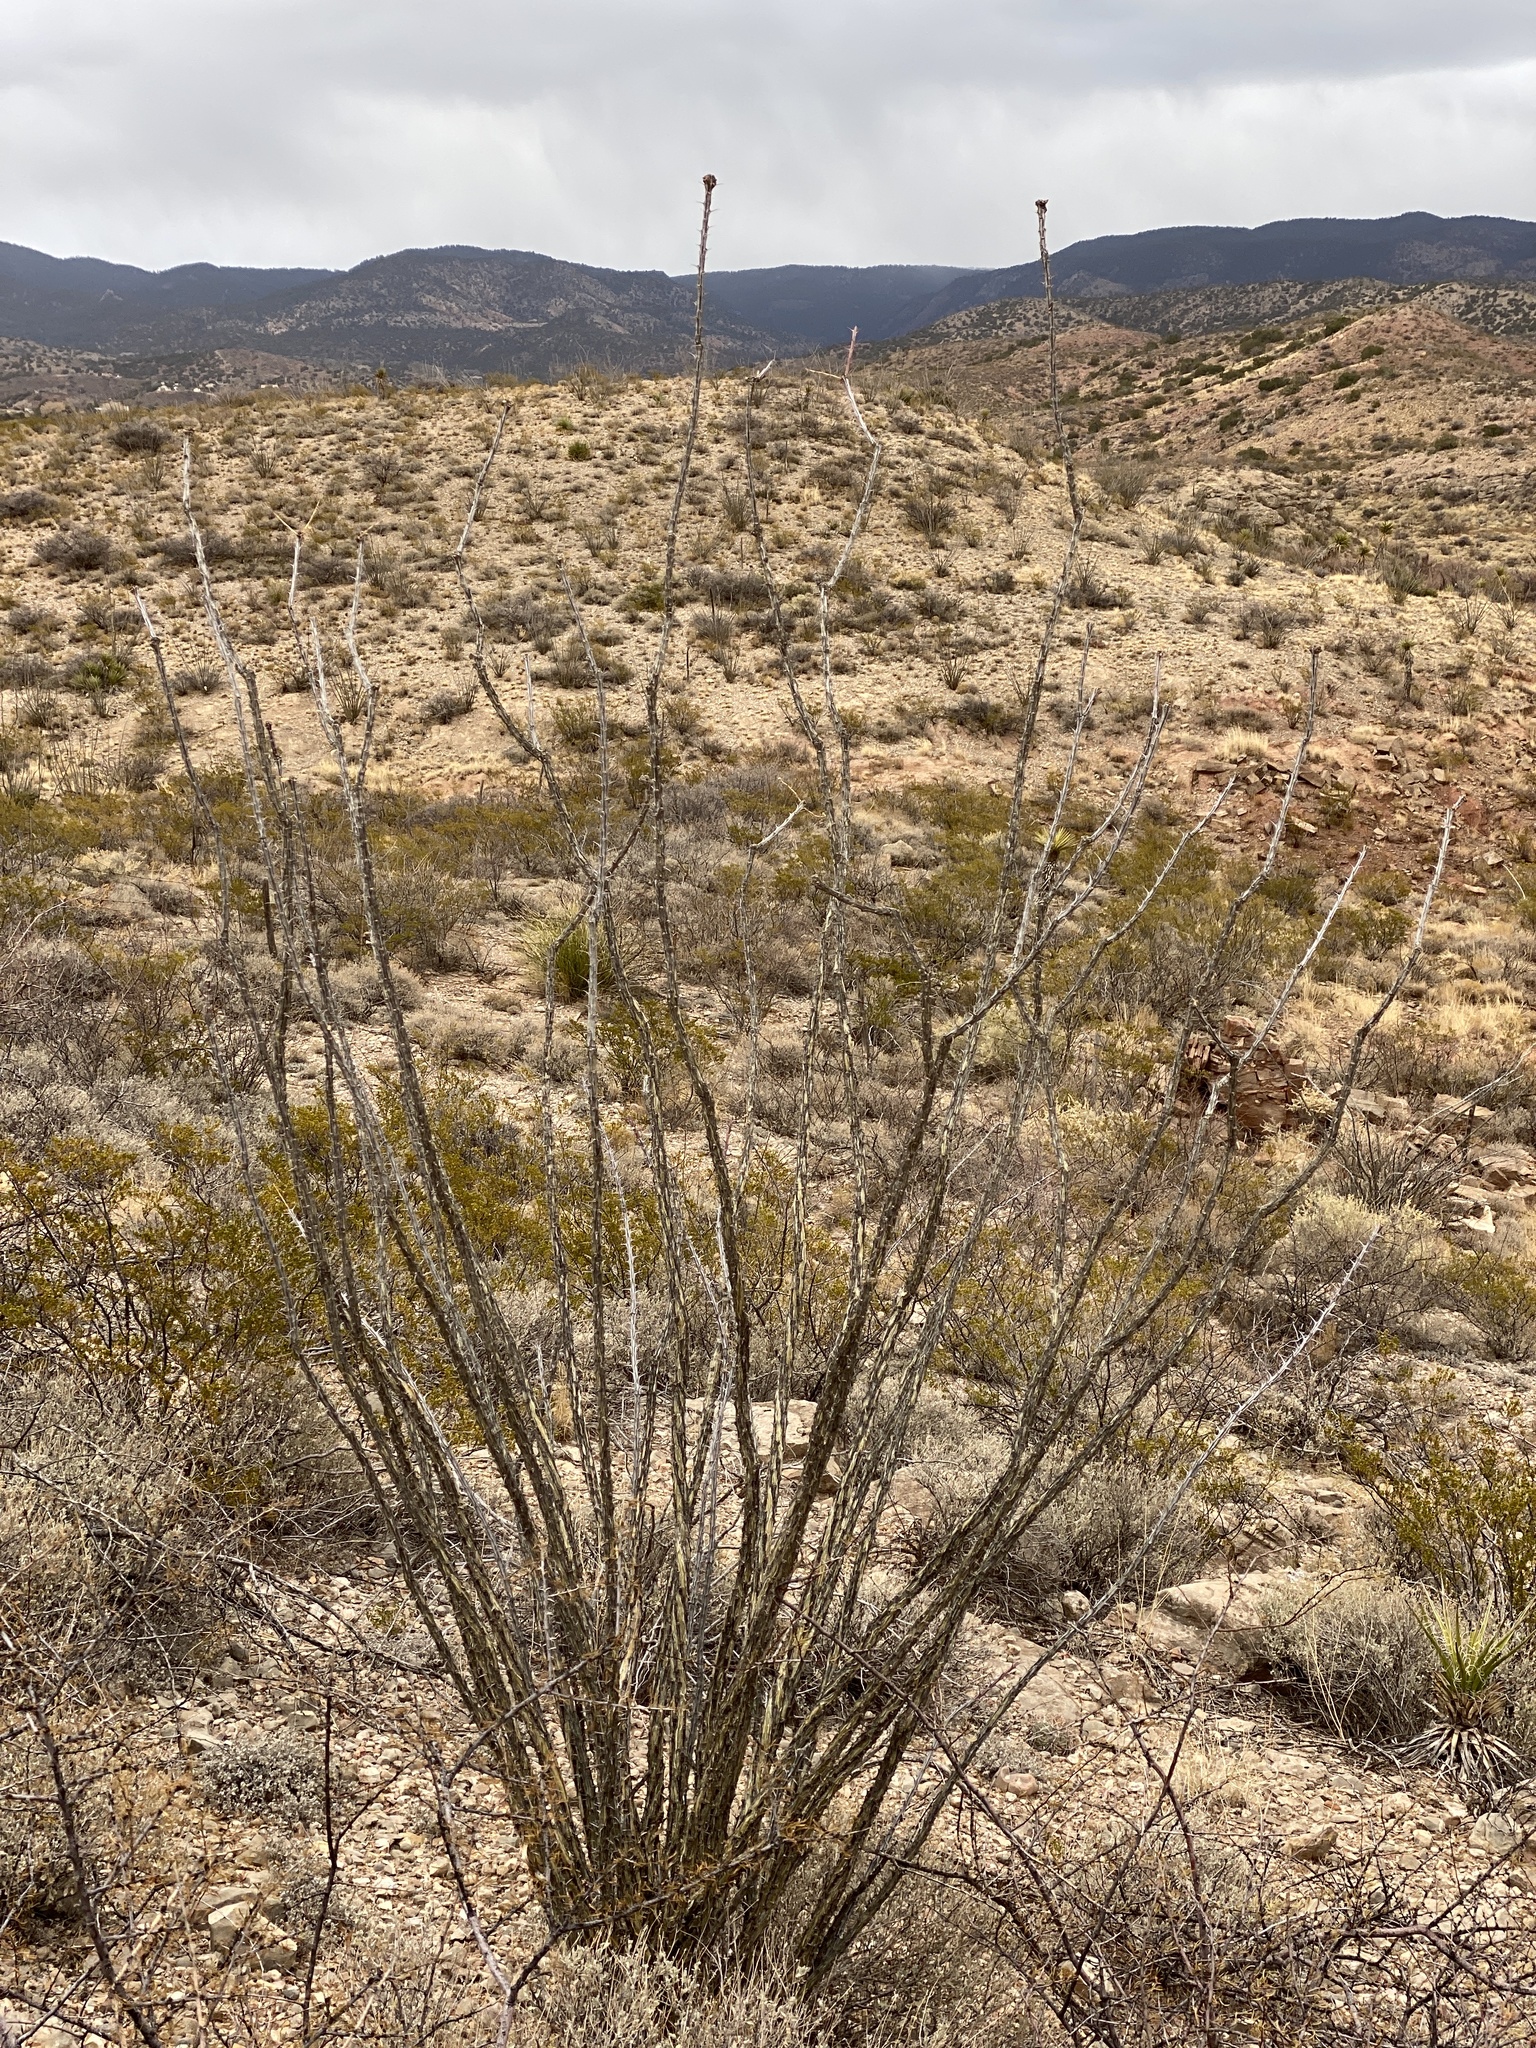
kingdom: Plantae
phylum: Tracheophyta
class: Magnoliopsida
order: Ericales
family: Fouquieriaceae
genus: Fouquieria
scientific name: Fouquieria splendens
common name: Vine-cactus
